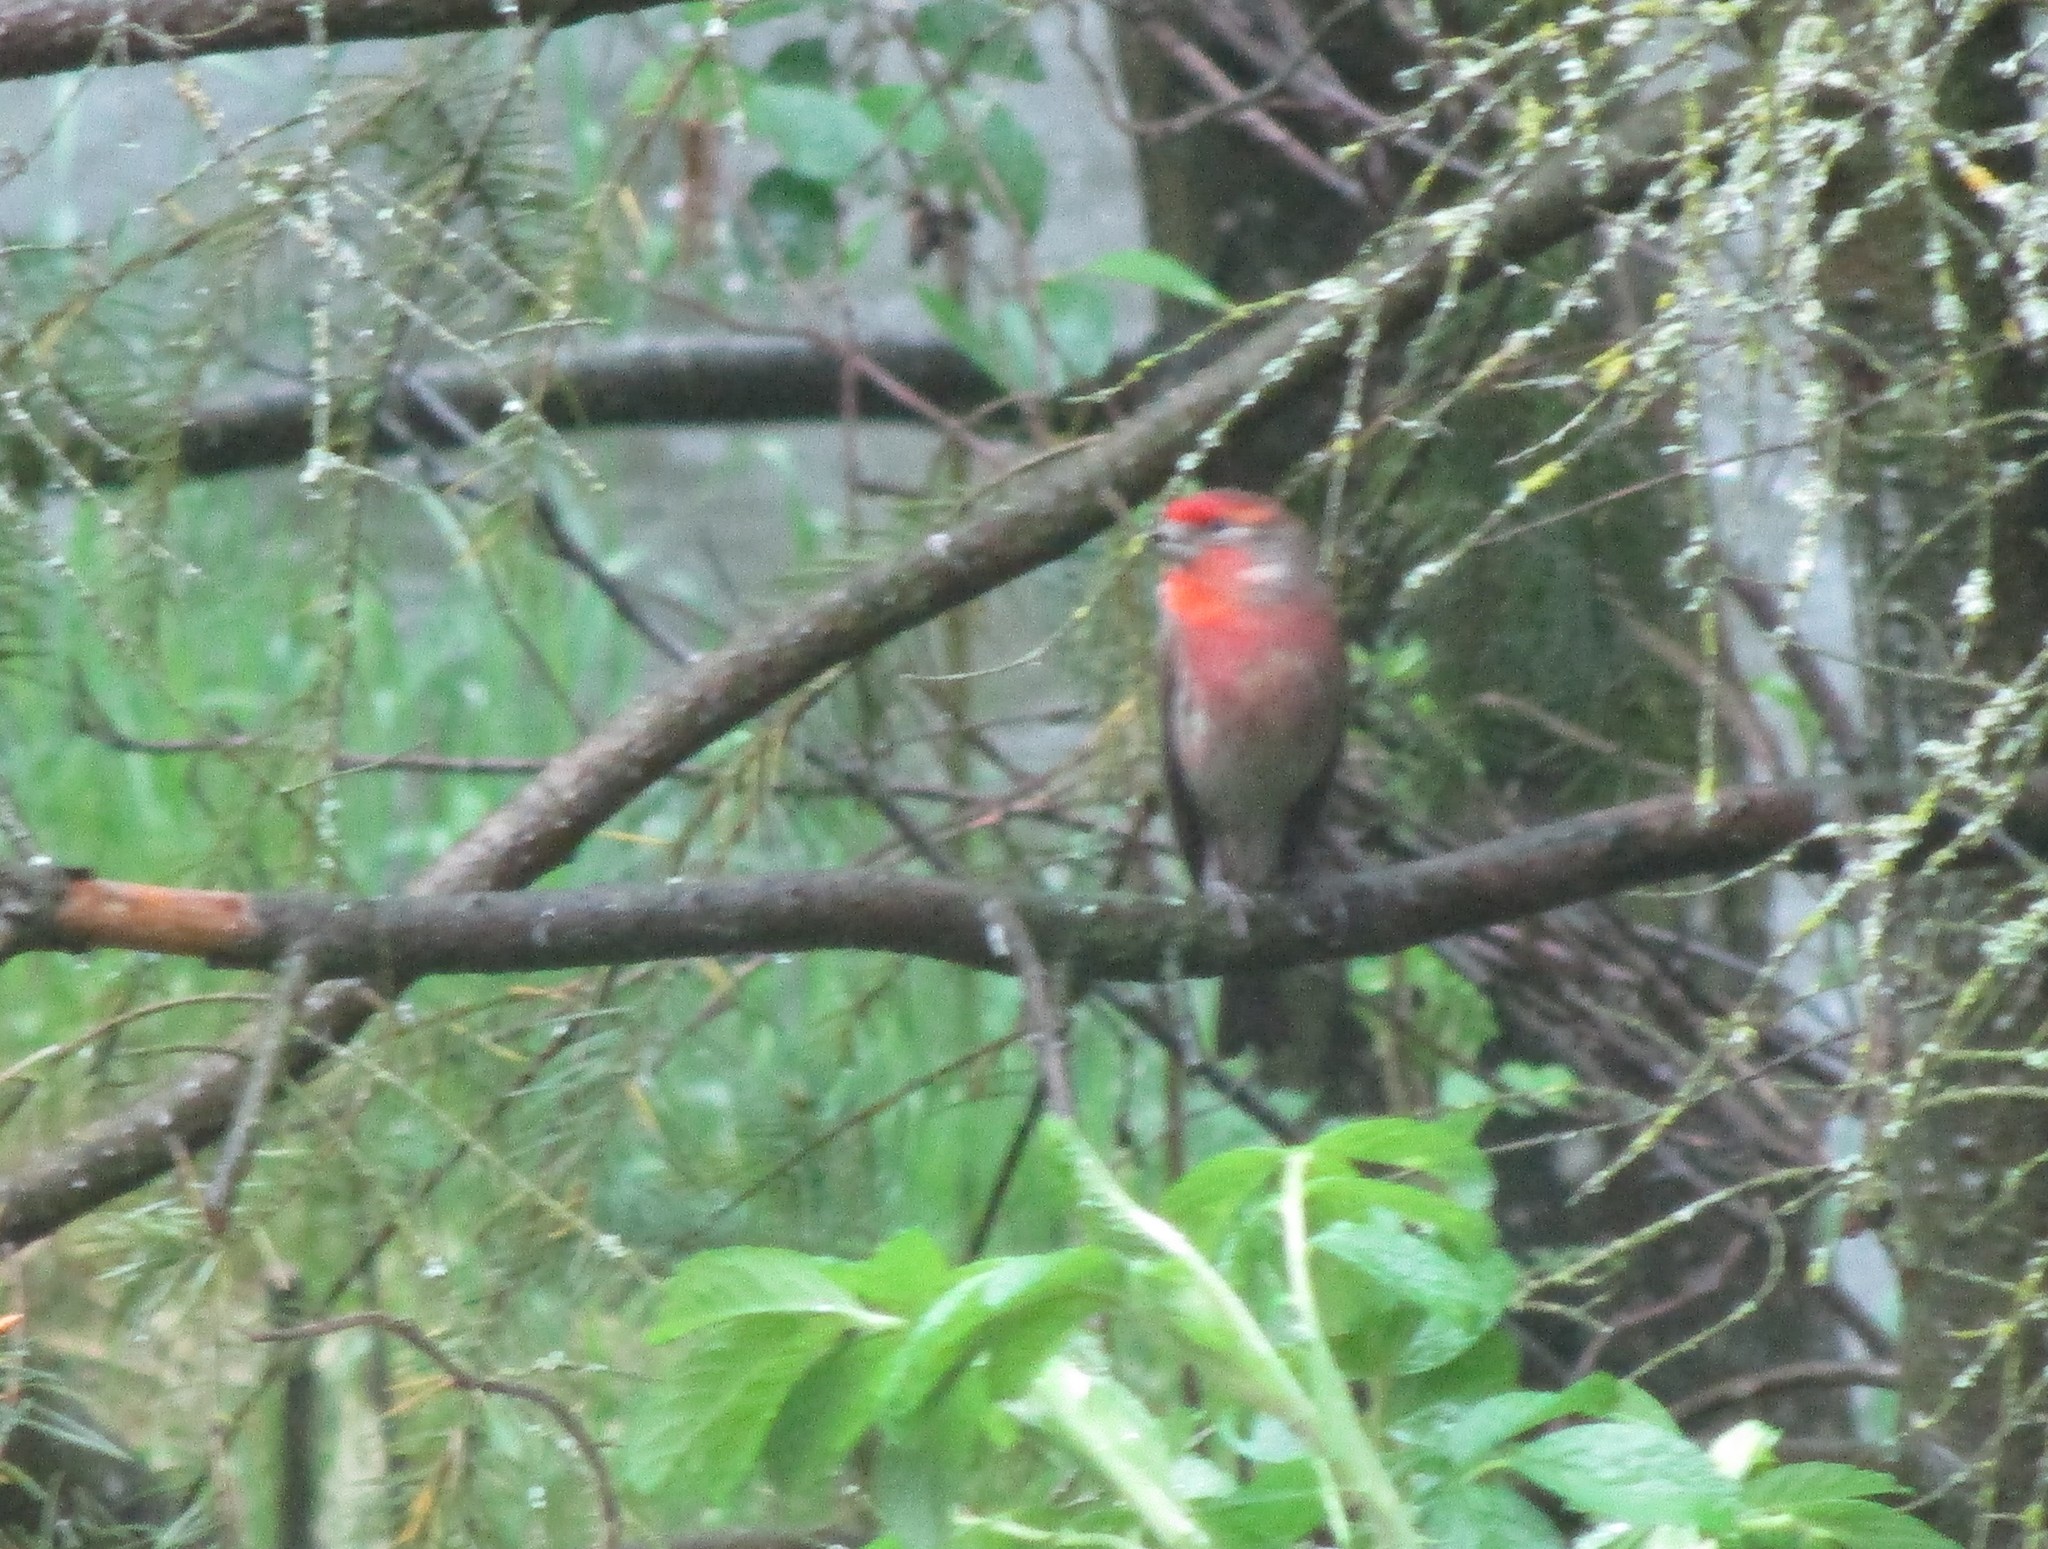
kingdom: Animalia
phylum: Chordata
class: Aves
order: Passeriformes
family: Fringillidae
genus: Haemorhous
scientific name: Haemorhous mexicanus
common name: House finch
